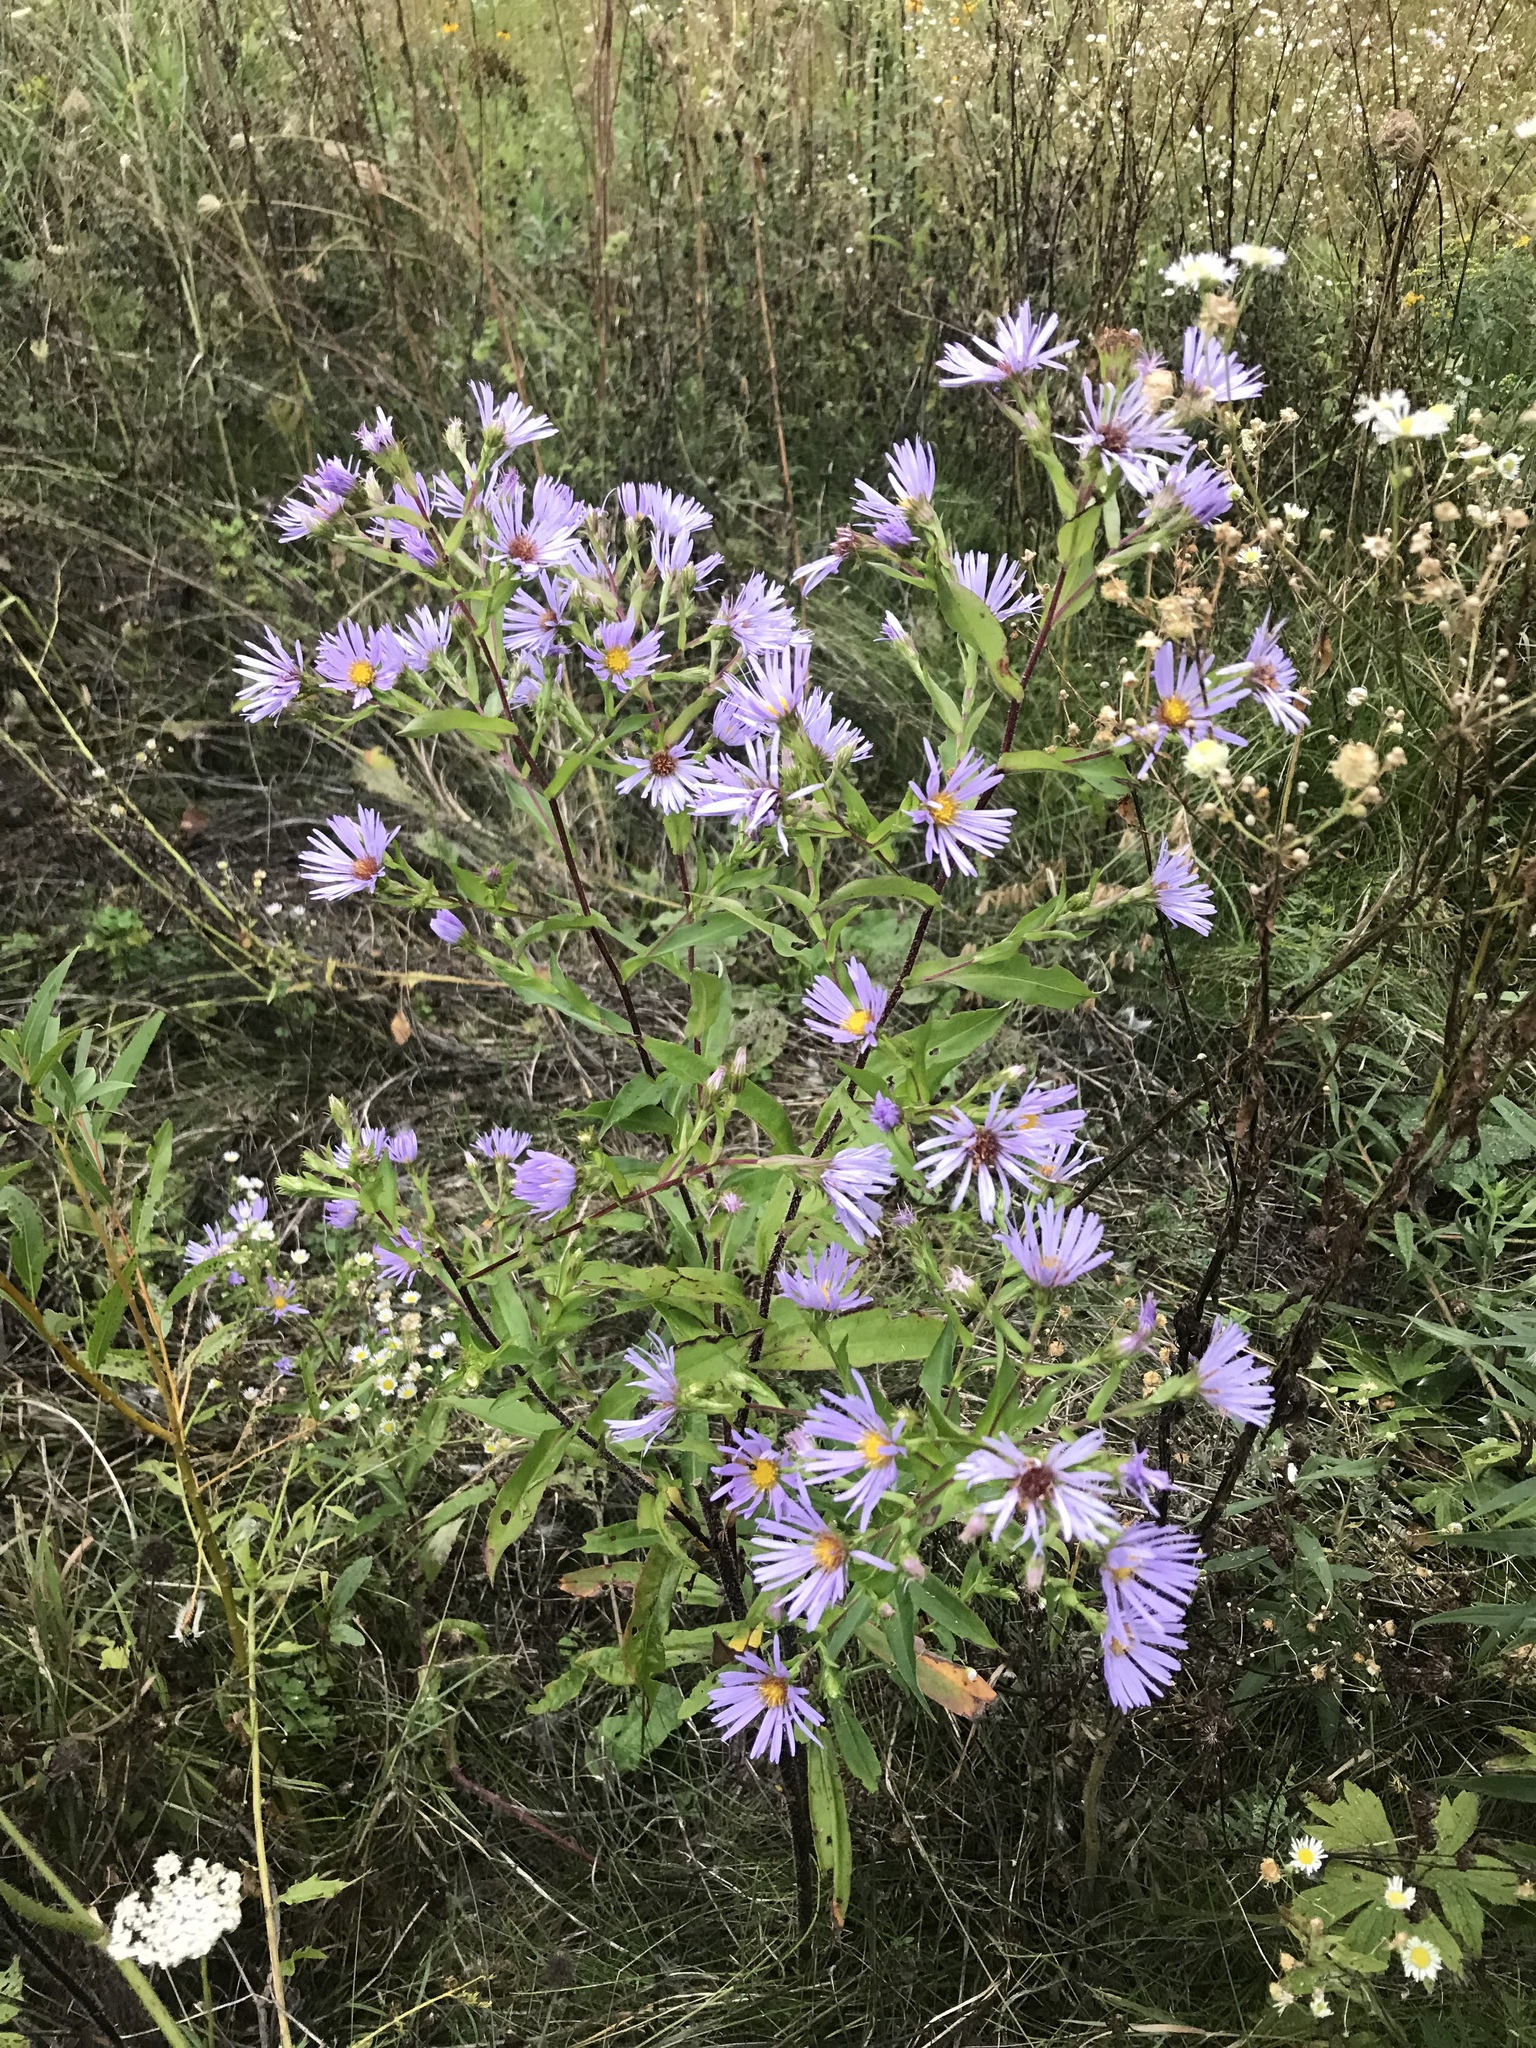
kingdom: Plantae
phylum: Tracheophyta
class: Magnoliopsida
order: Asterales
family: Asteraceae
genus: Symphyotrichum
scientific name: Symphyotrichum puniceum
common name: Bog aster
